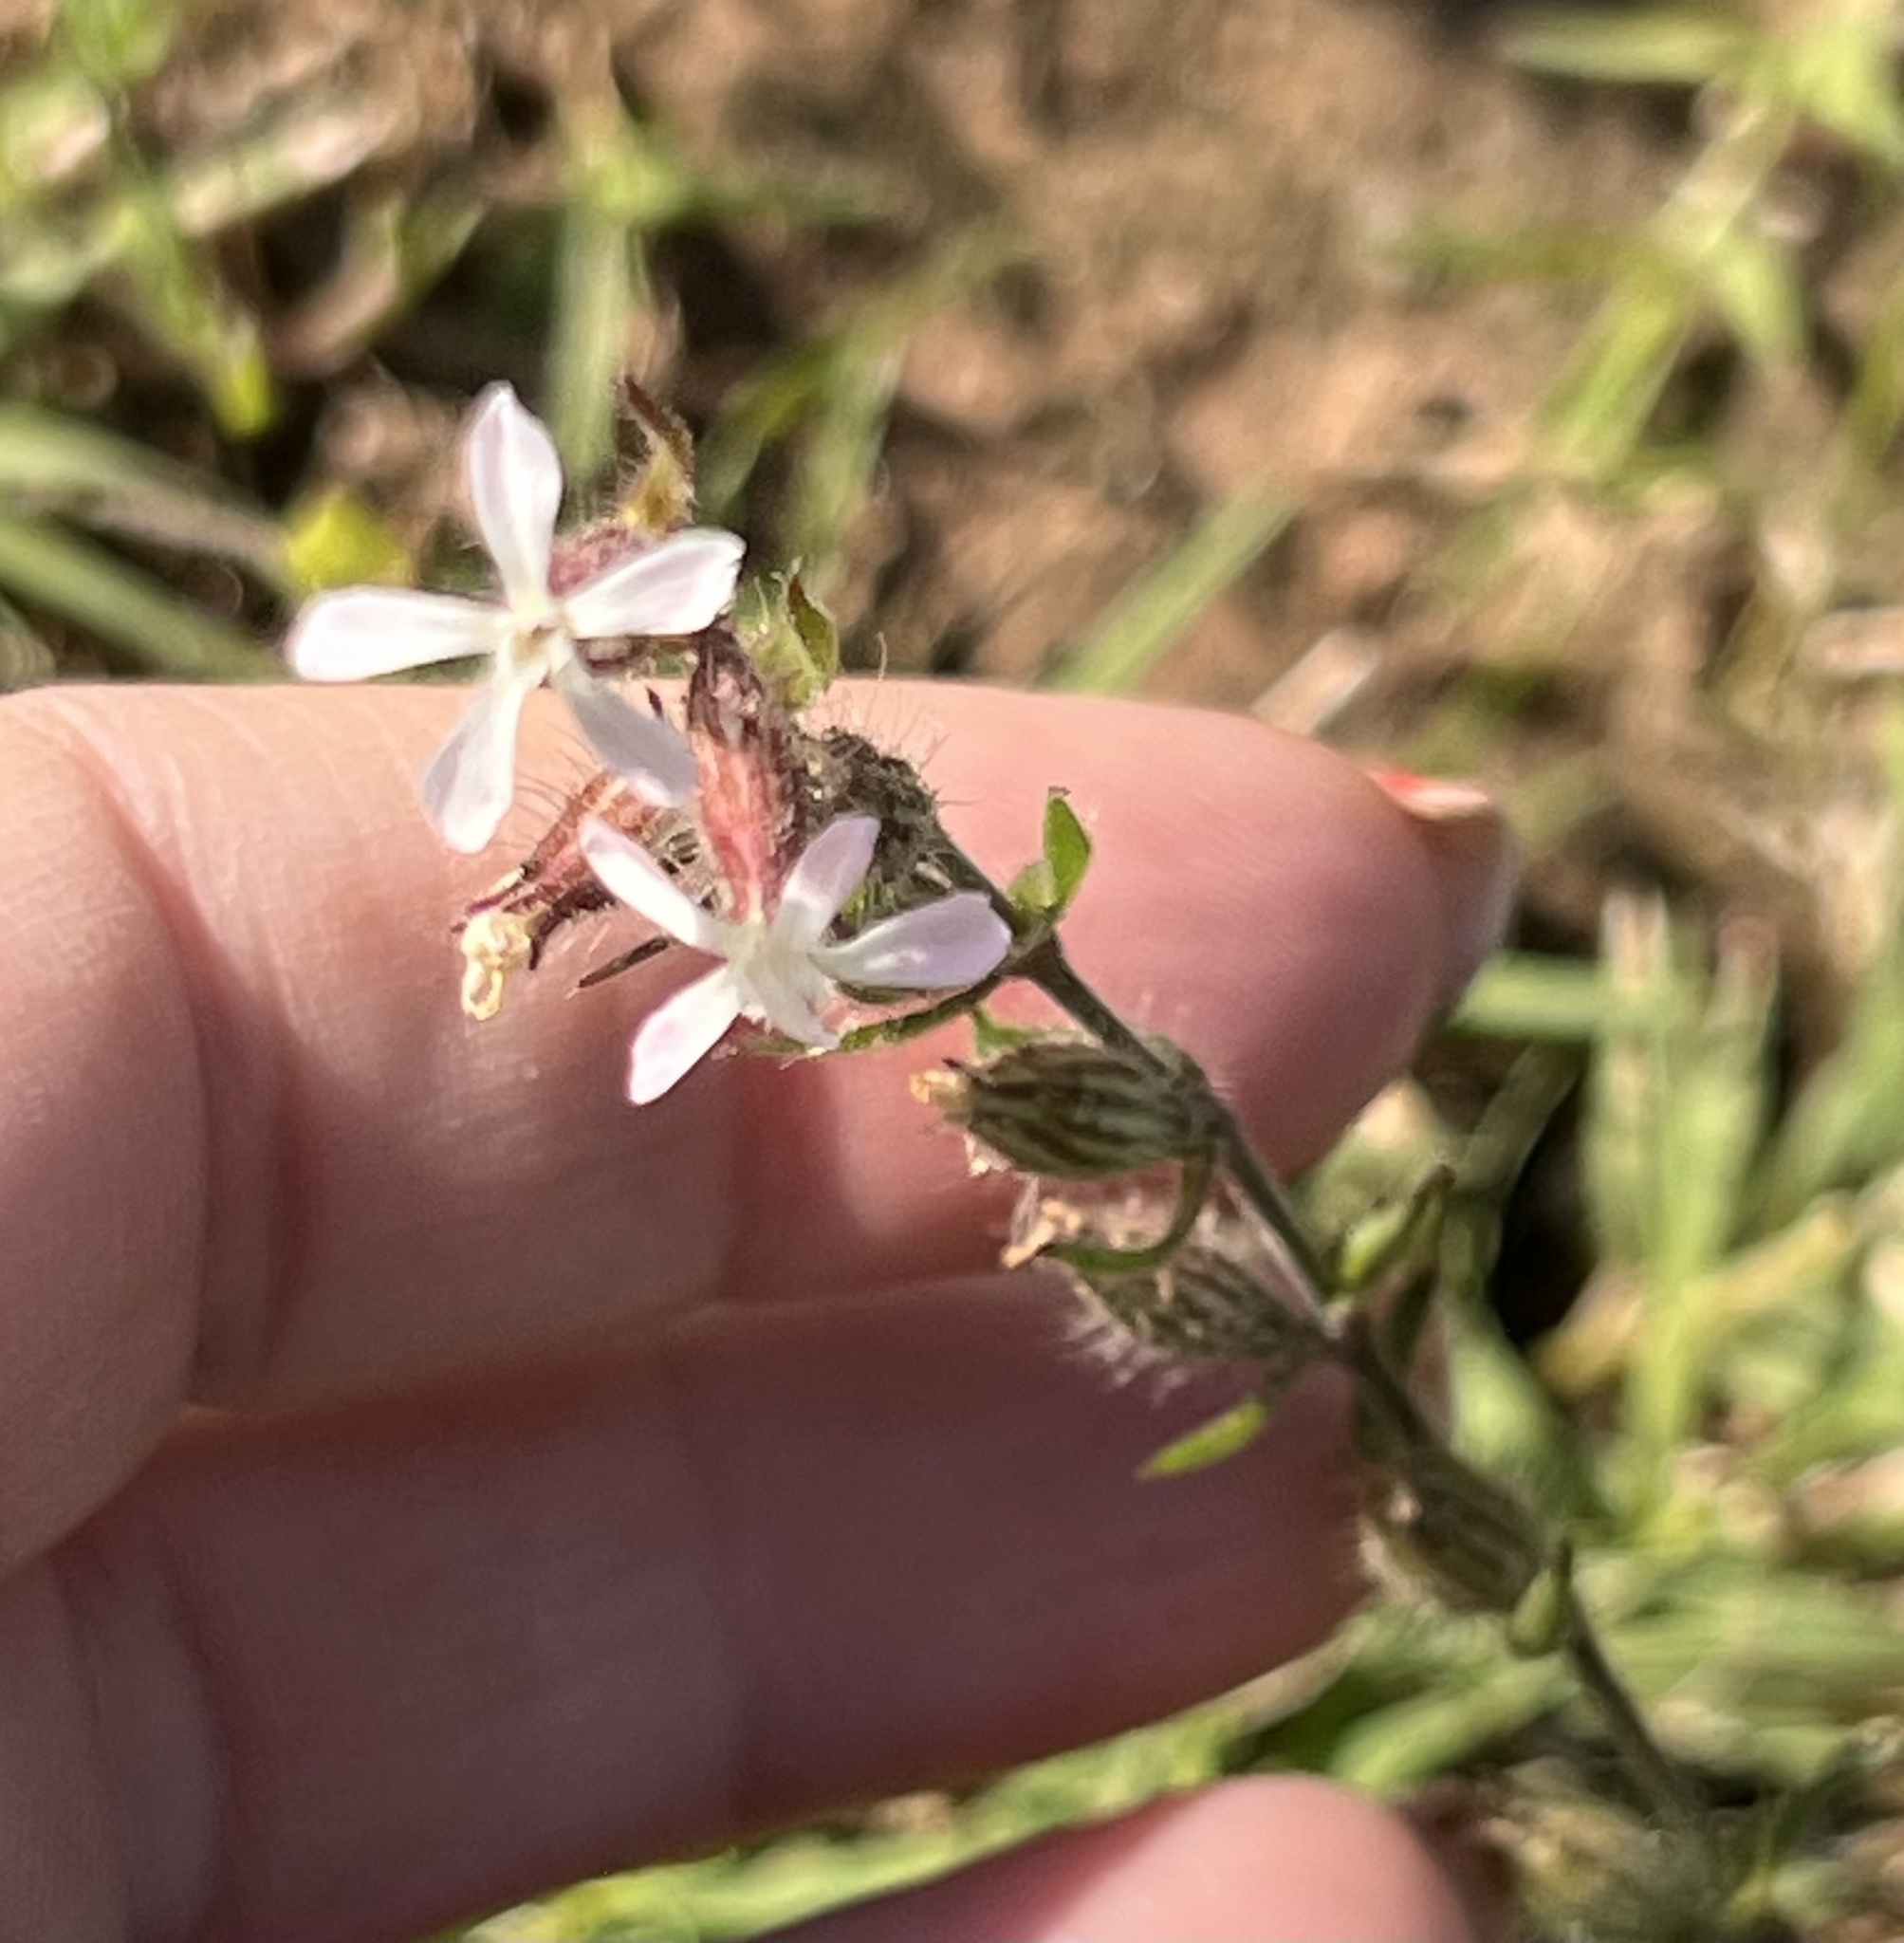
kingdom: Plantae
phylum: Tracheophyta
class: Magnoliopsida
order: Caryophyllales
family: Caryophyllaceae
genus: Silene
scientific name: Silene gallica
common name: Small-flowered catchfly
